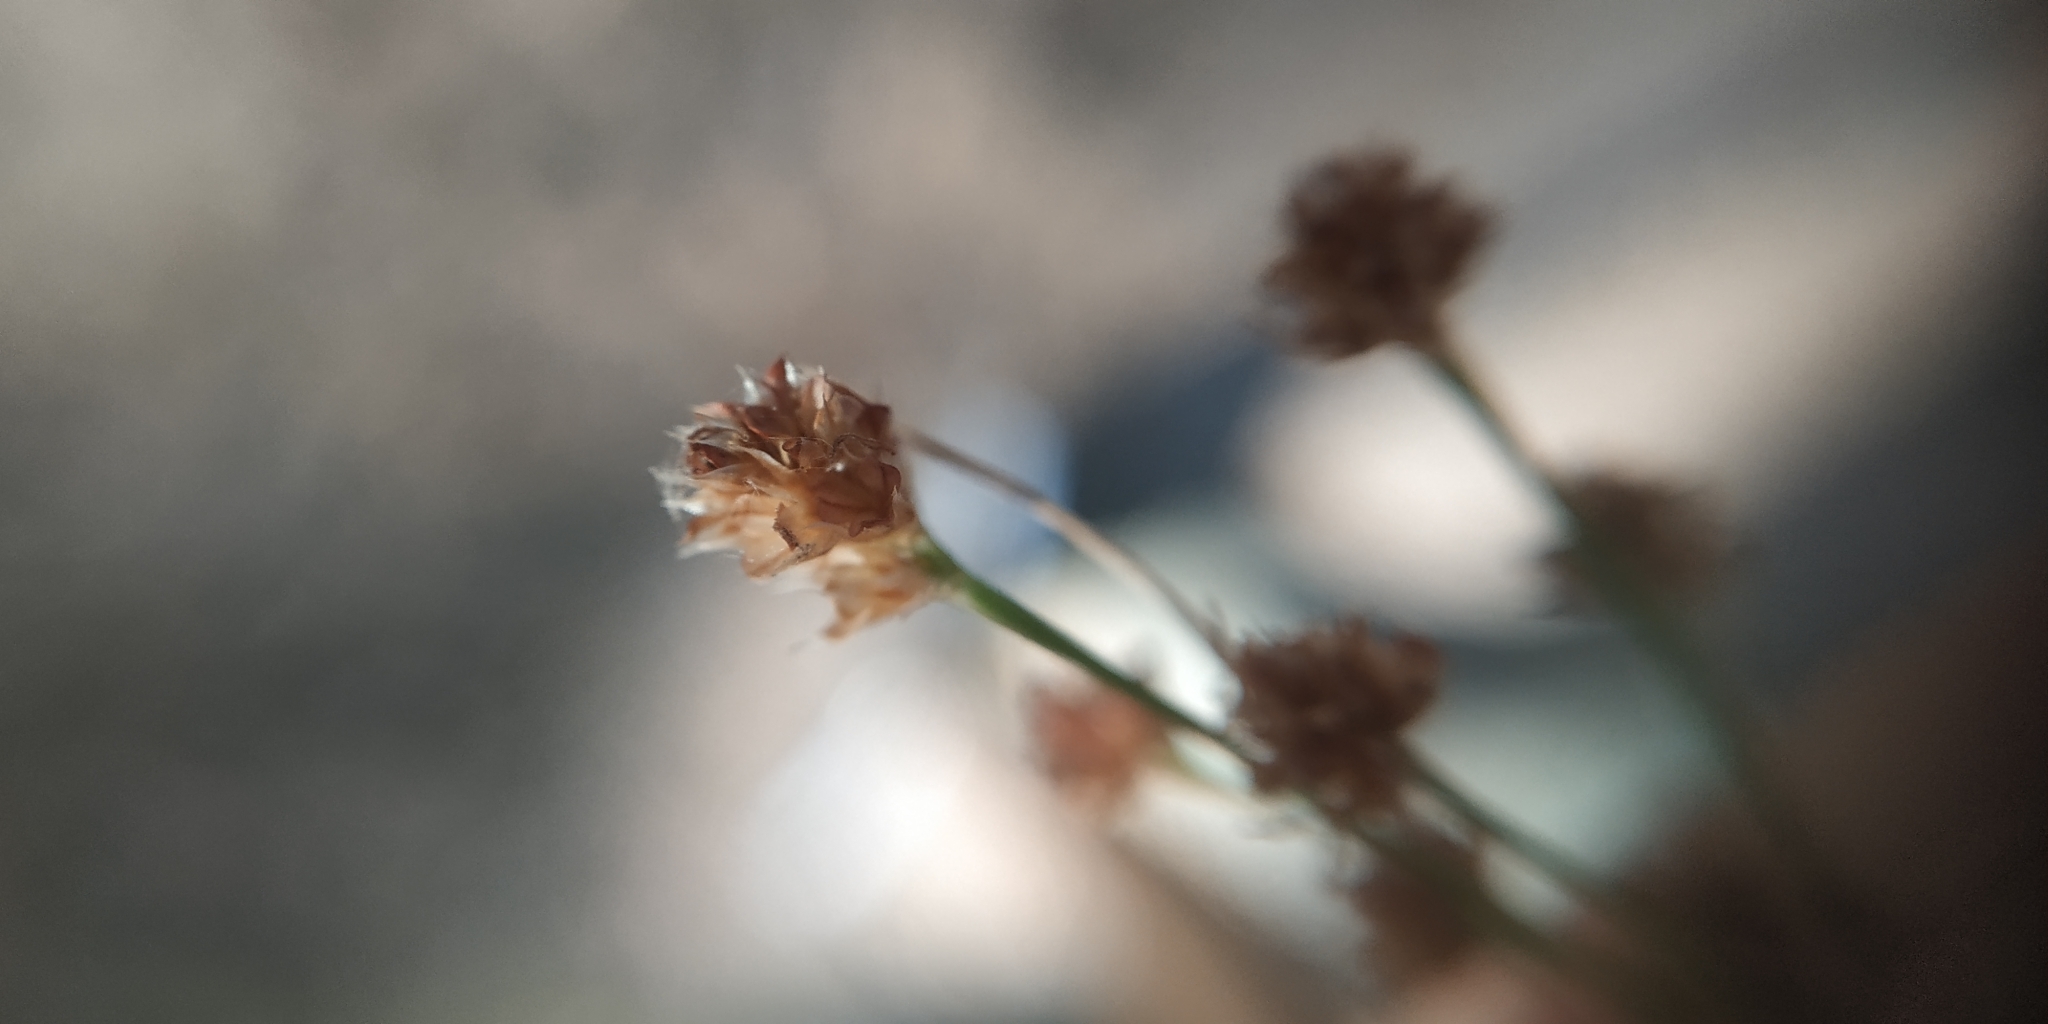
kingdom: Plantae
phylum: Tracheophyta
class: Liliopsida
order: Poales
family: Juncaceae
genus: Luzula
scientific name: Luzula pallescens
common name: Fen wood-rush
